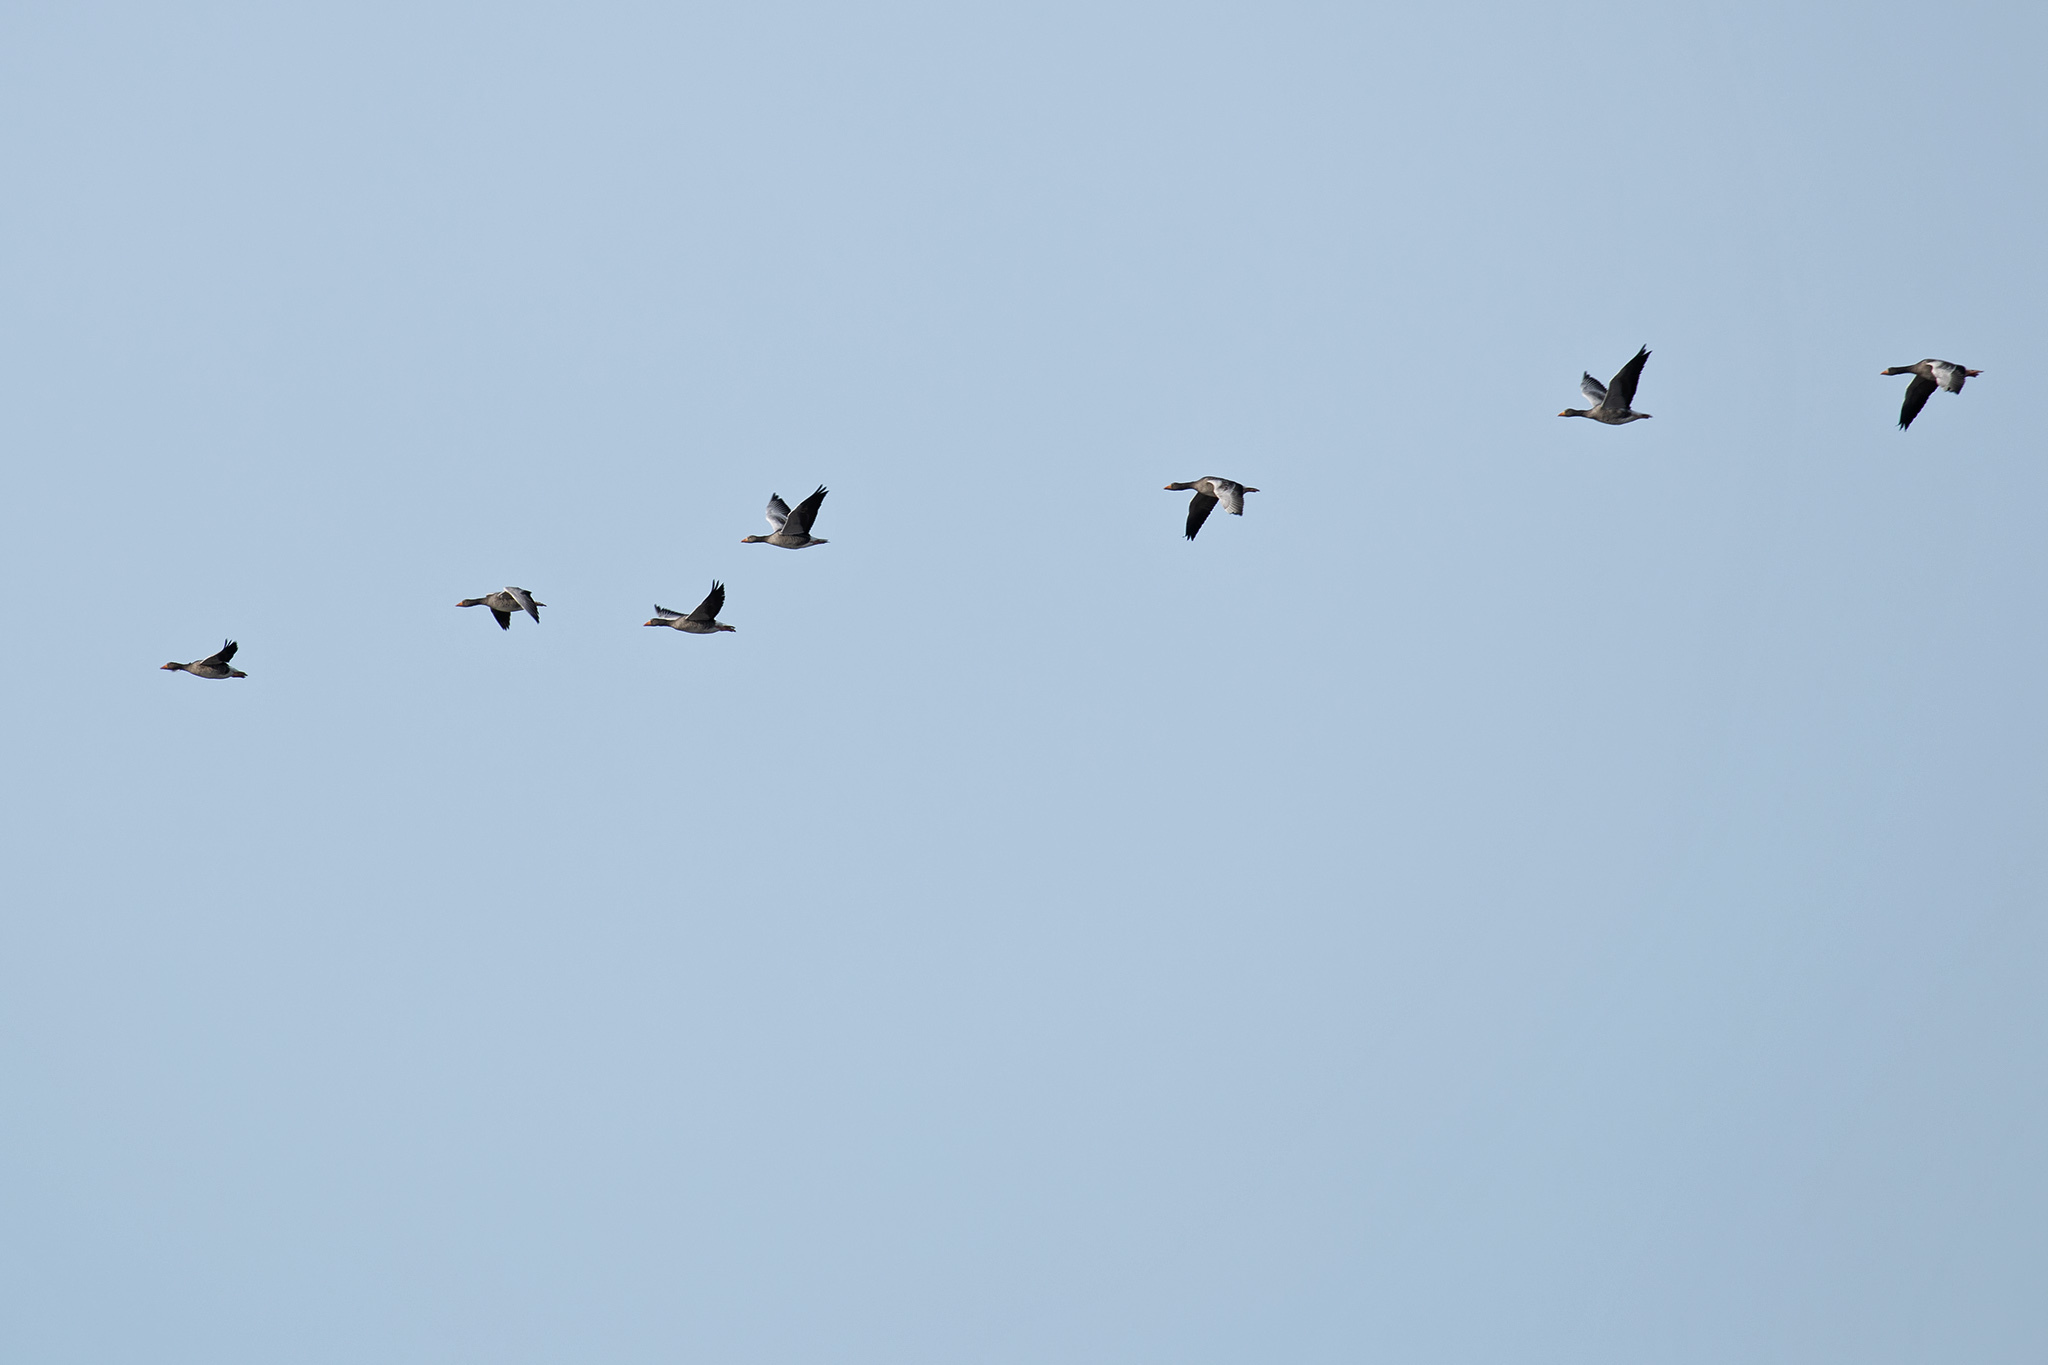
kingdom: Animalia
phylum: Chordata
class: Aves
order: Anseriformes
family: Anatidae
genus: Anser
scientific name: Anser anser
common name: Greylag goose
